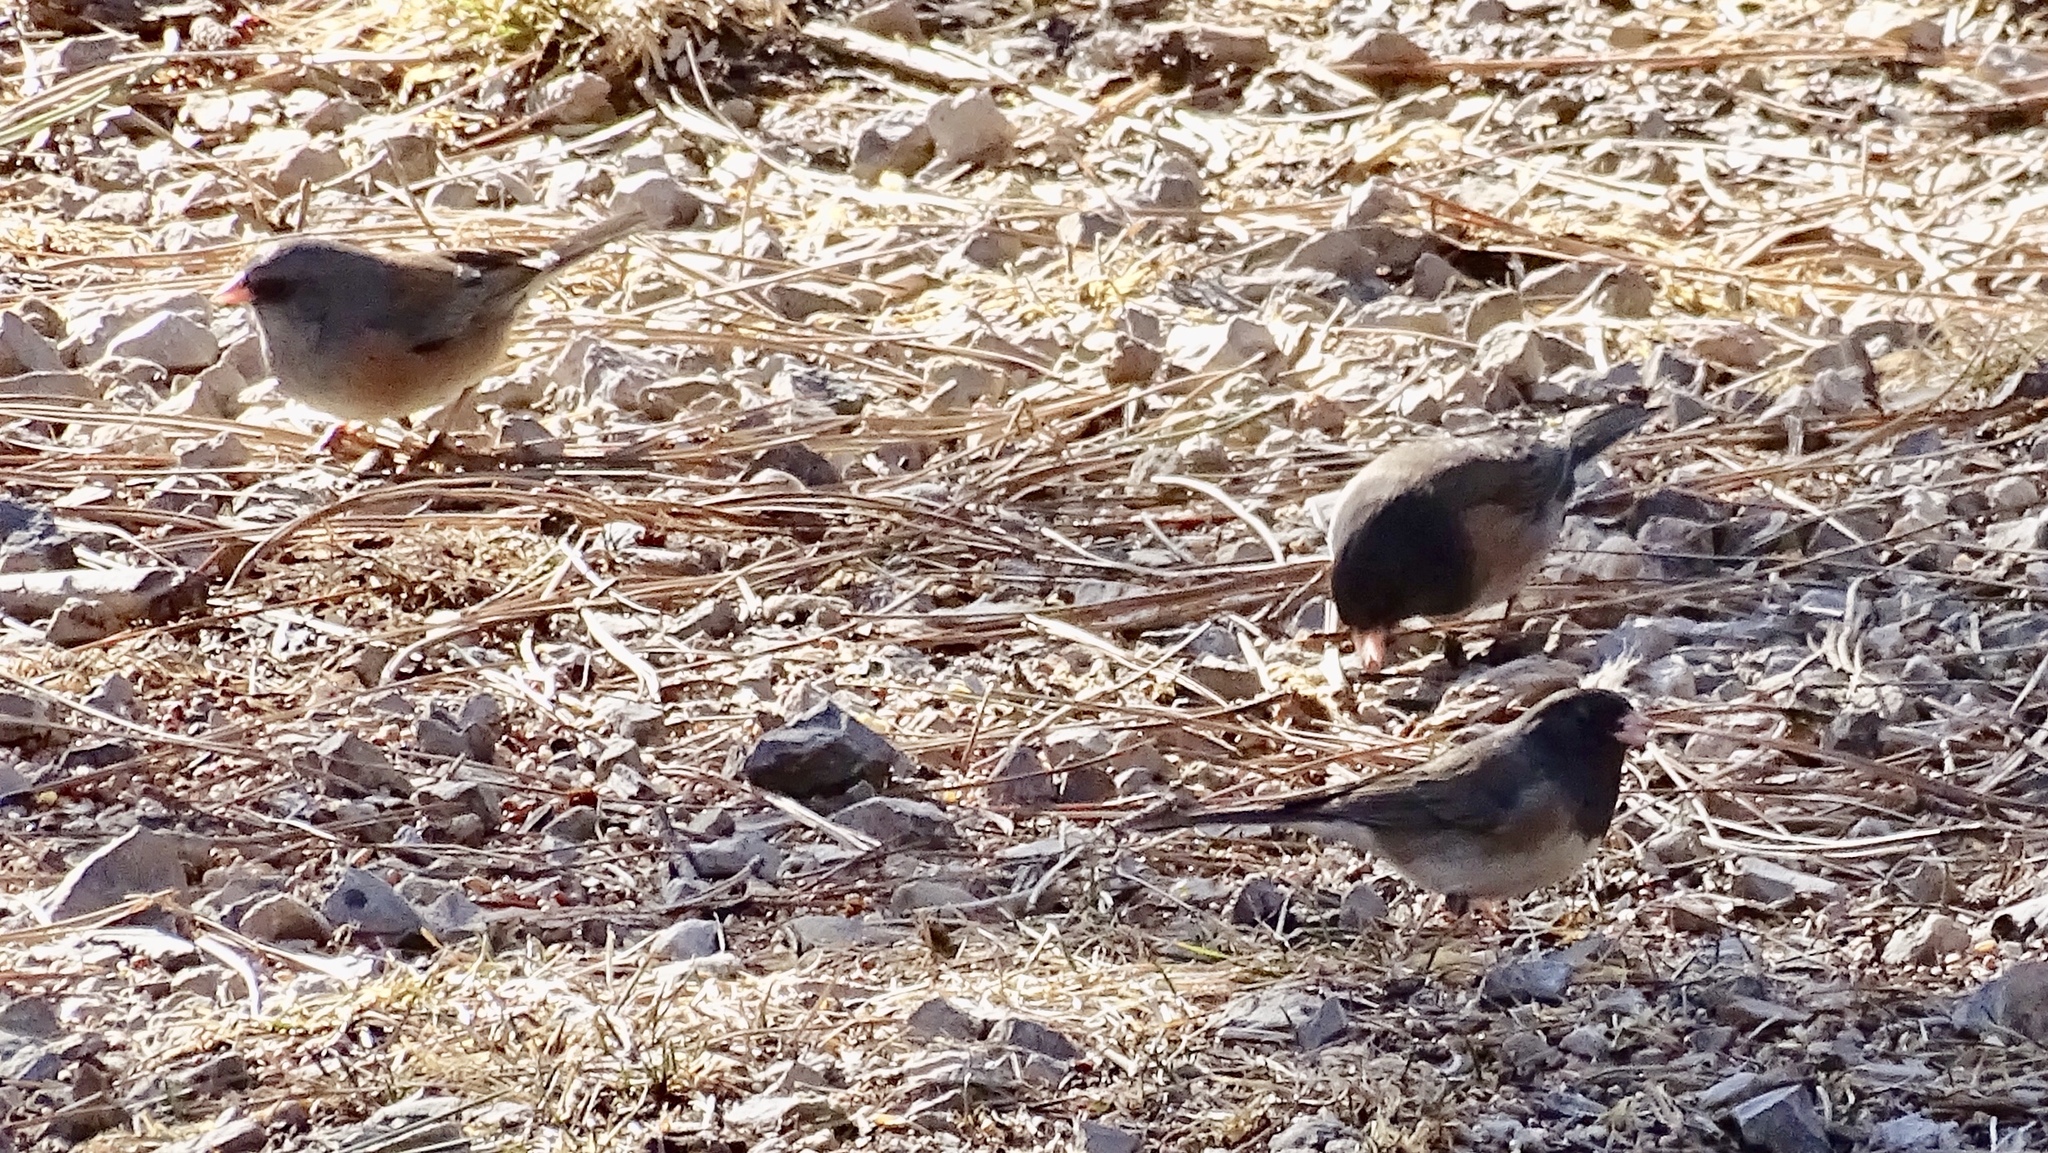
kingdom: Animalia
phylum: Chordata
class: Aves
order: Passeriformes
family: Passerellidae
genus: Junco
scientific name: Junco hyemalis
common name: Dark-eyed junco
